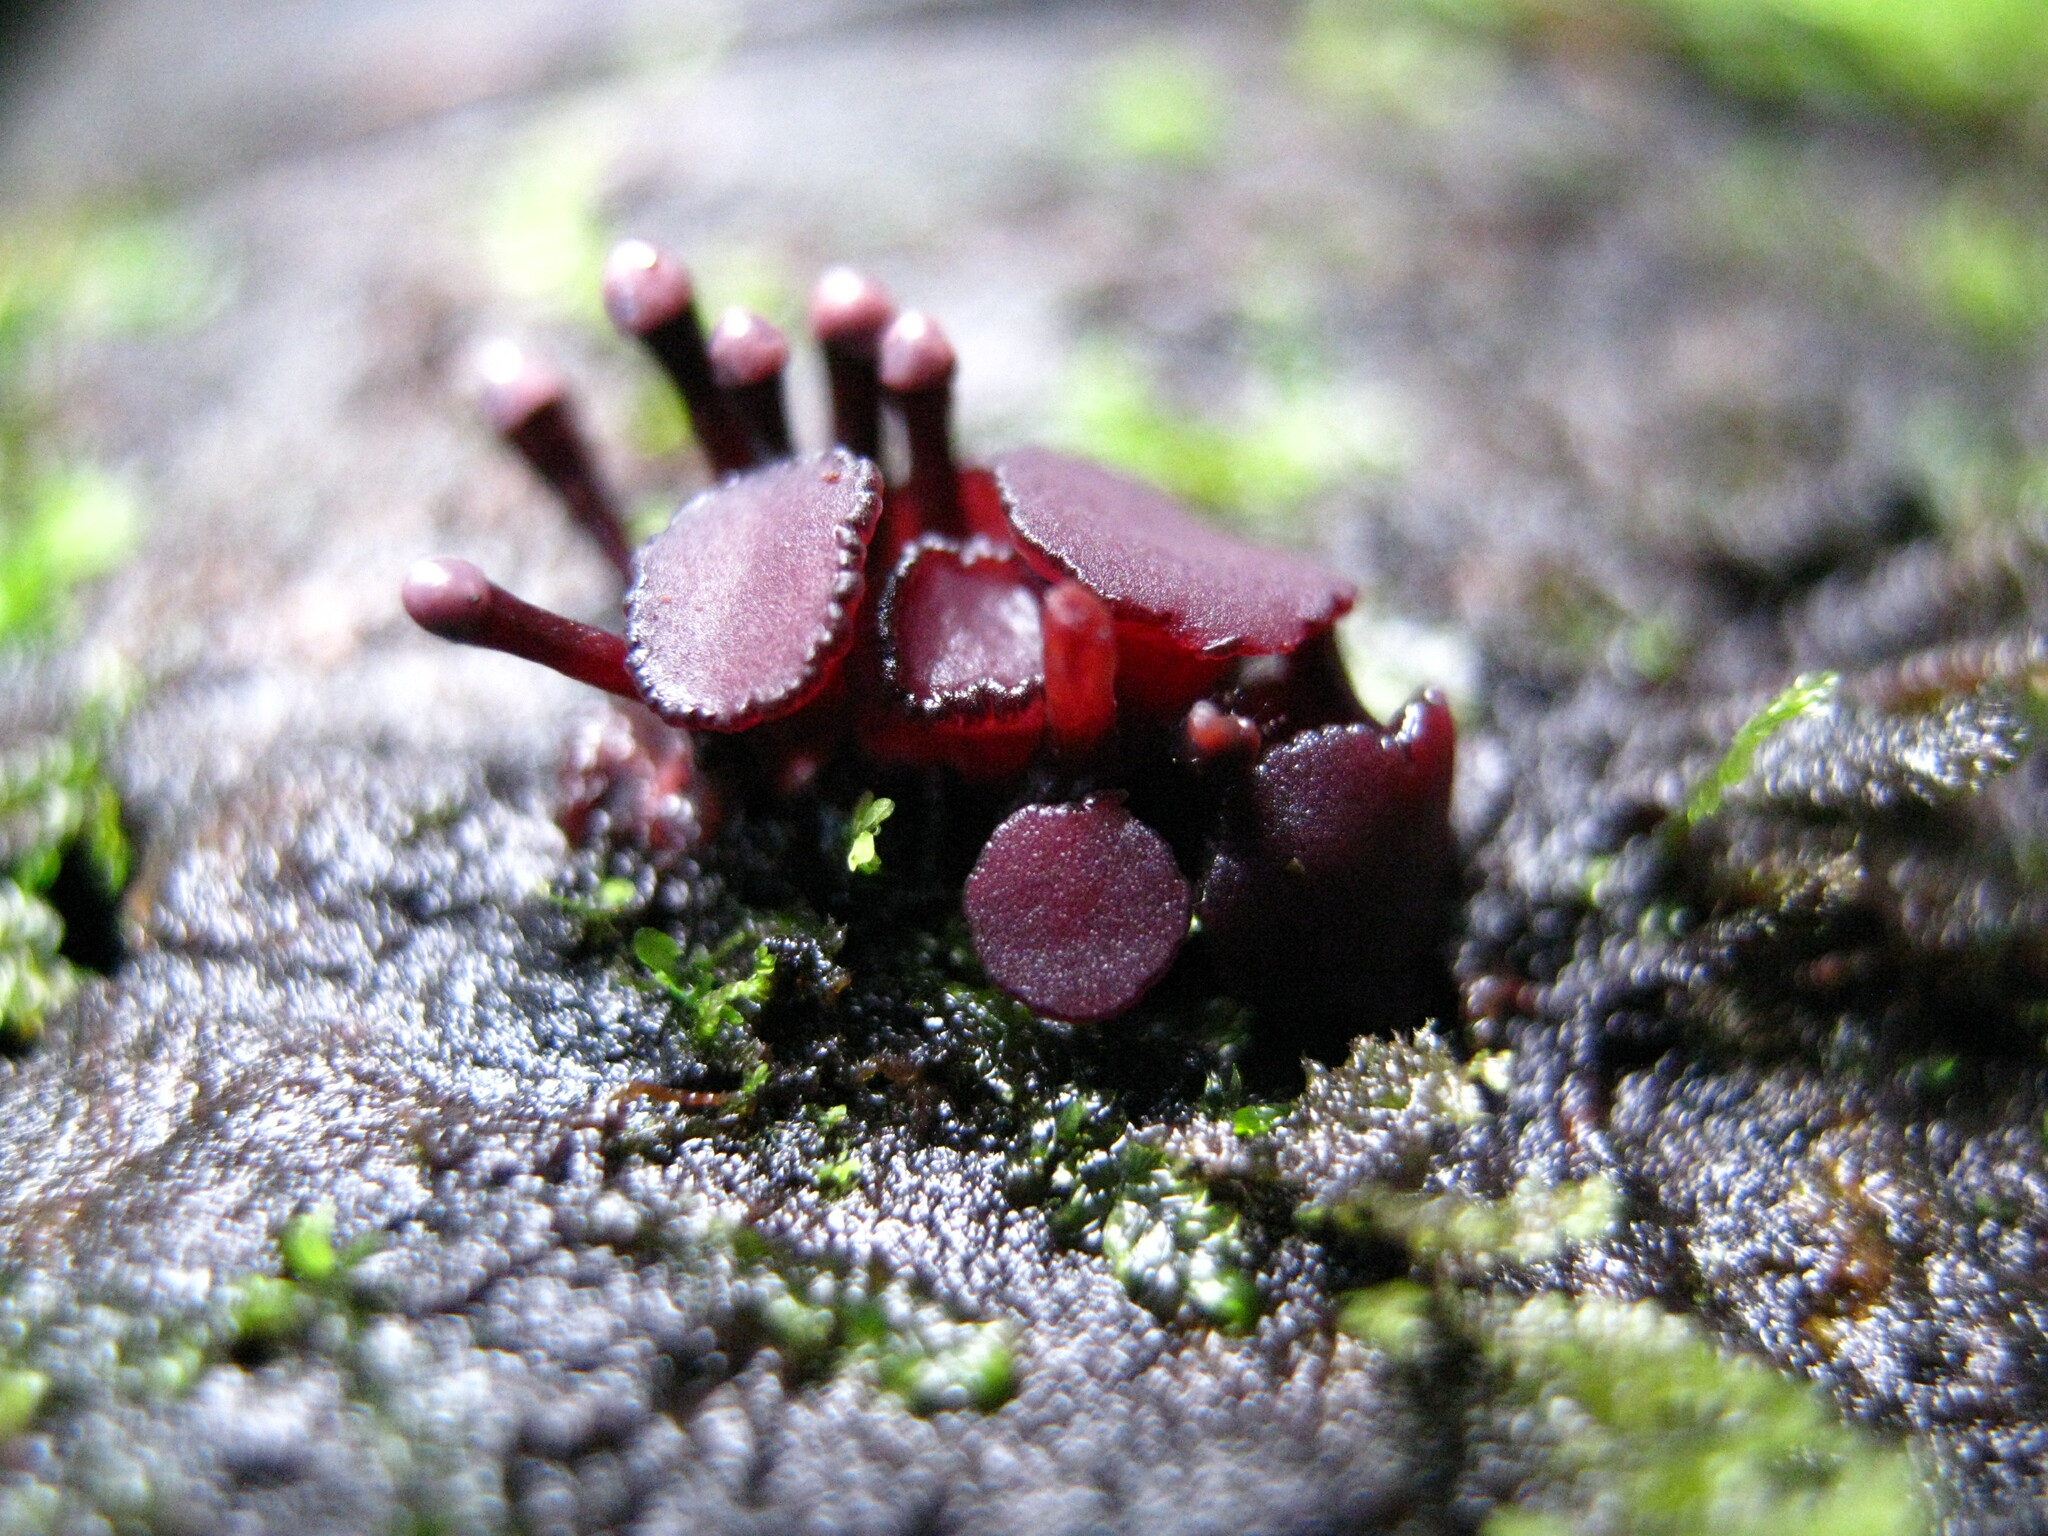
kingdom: Fungi
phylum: Ascomycota
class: Leotiomycetes
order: Helotiales
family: Gelatinodiscaceae
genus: Ascocoryne
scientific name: Ascocoryne trichophora
